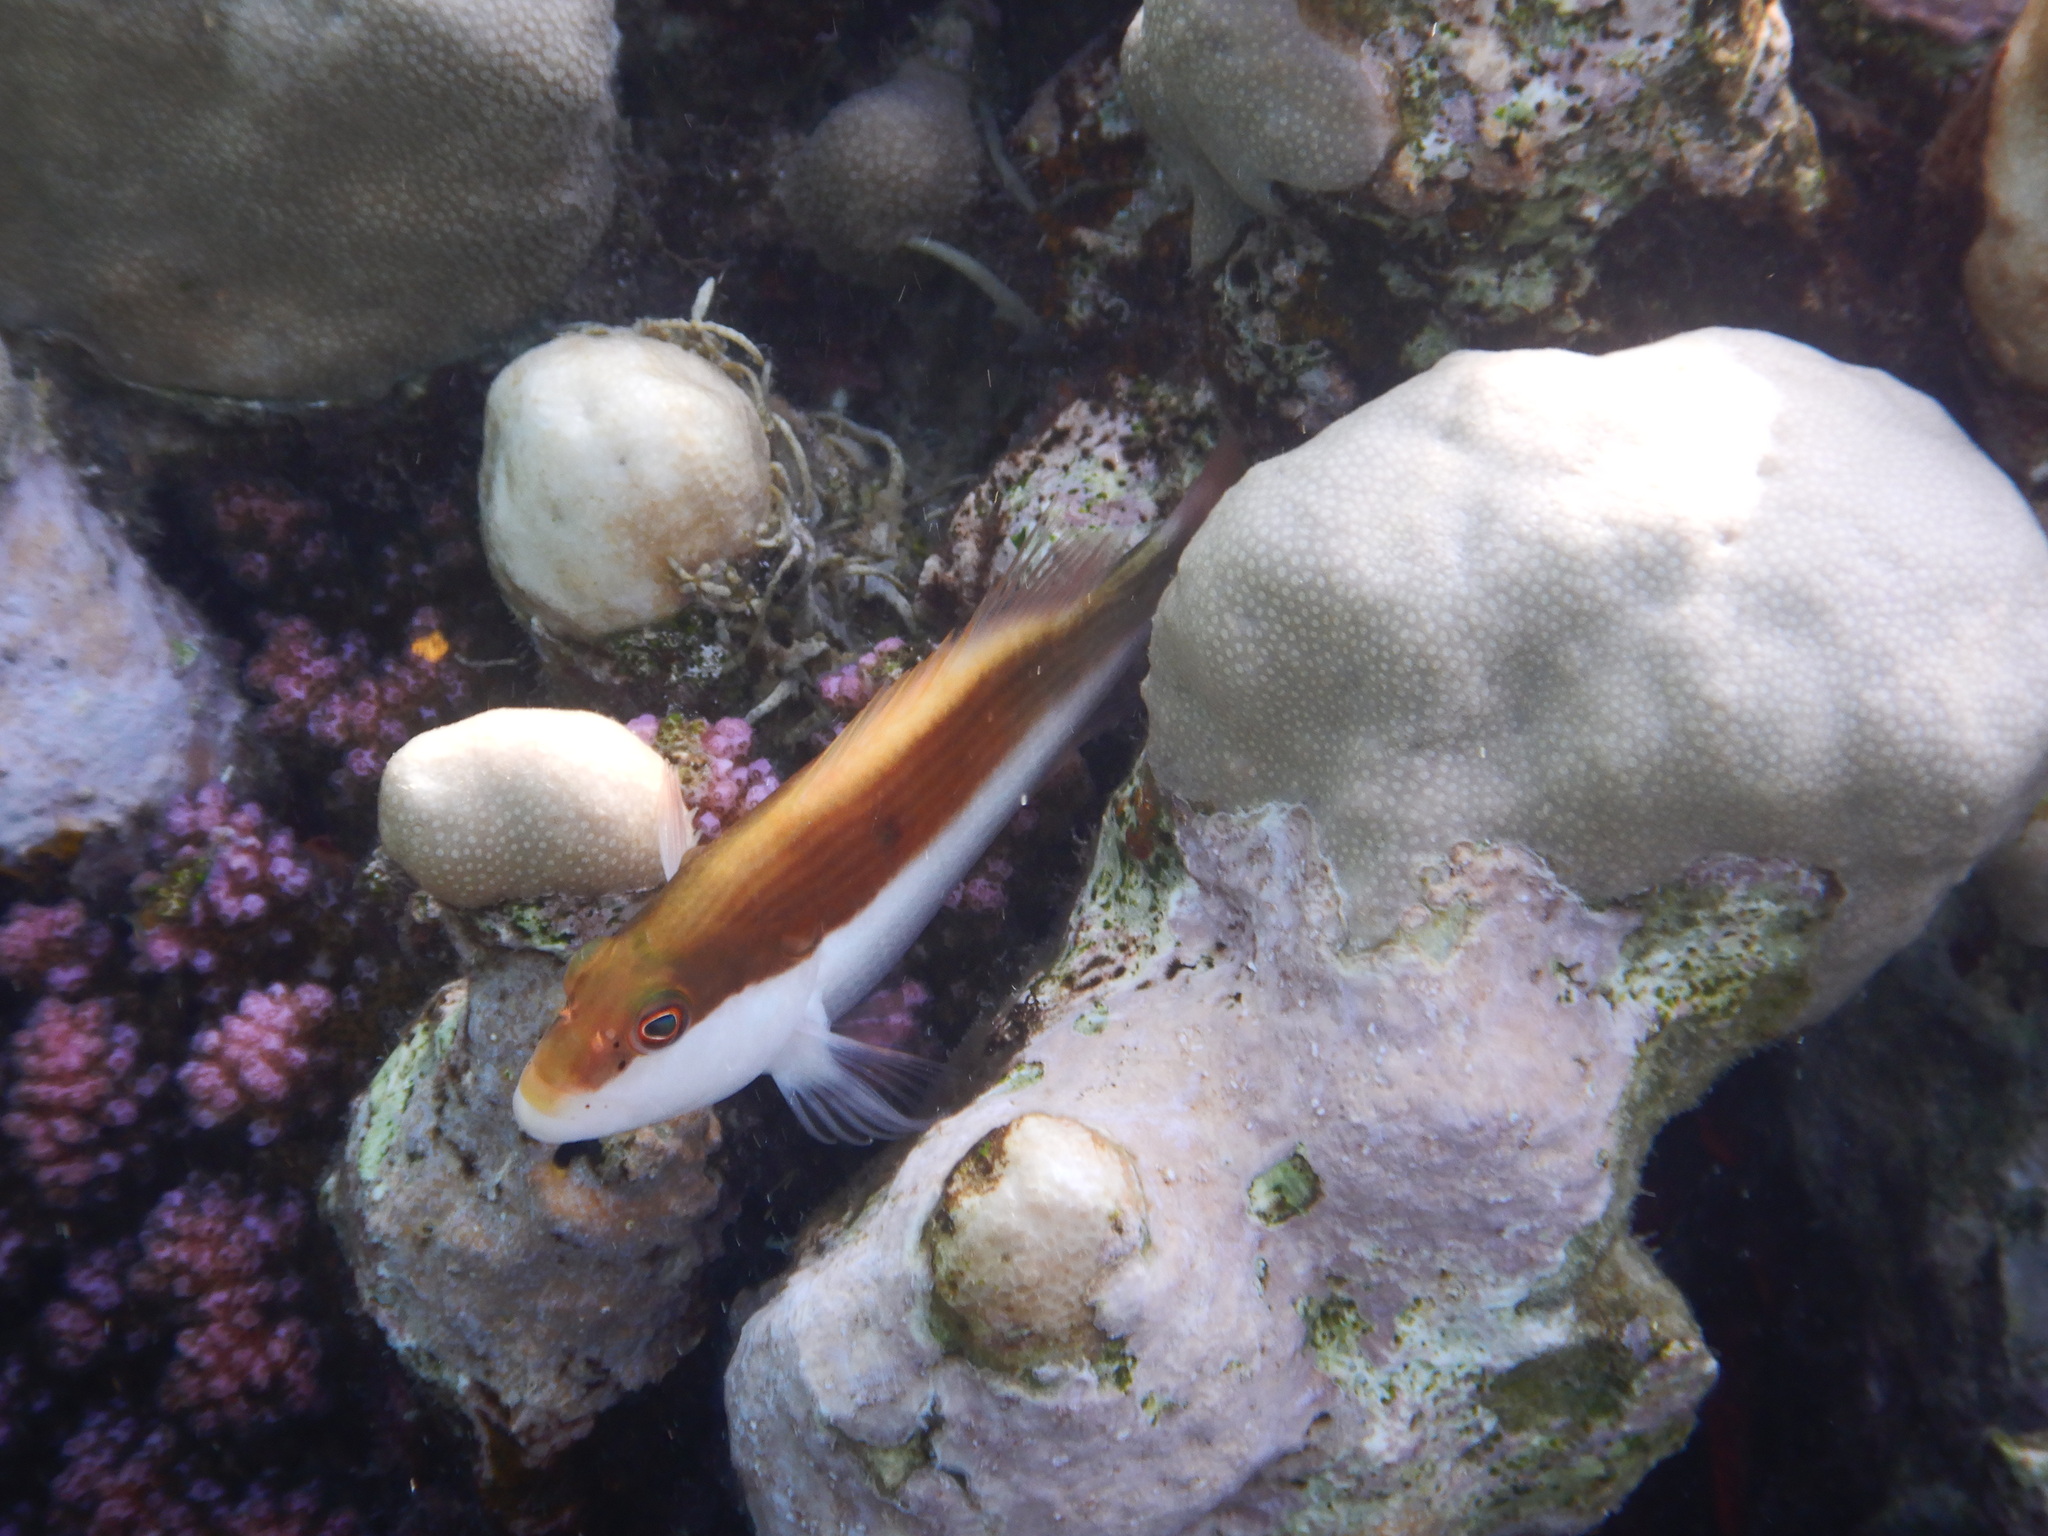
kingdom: Animalia
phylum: Chordata
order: Perciformes
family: Cirrhitidae
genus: Paracirrhites
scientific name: Paracirrhites forsteri
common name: Freckled hawkfish
